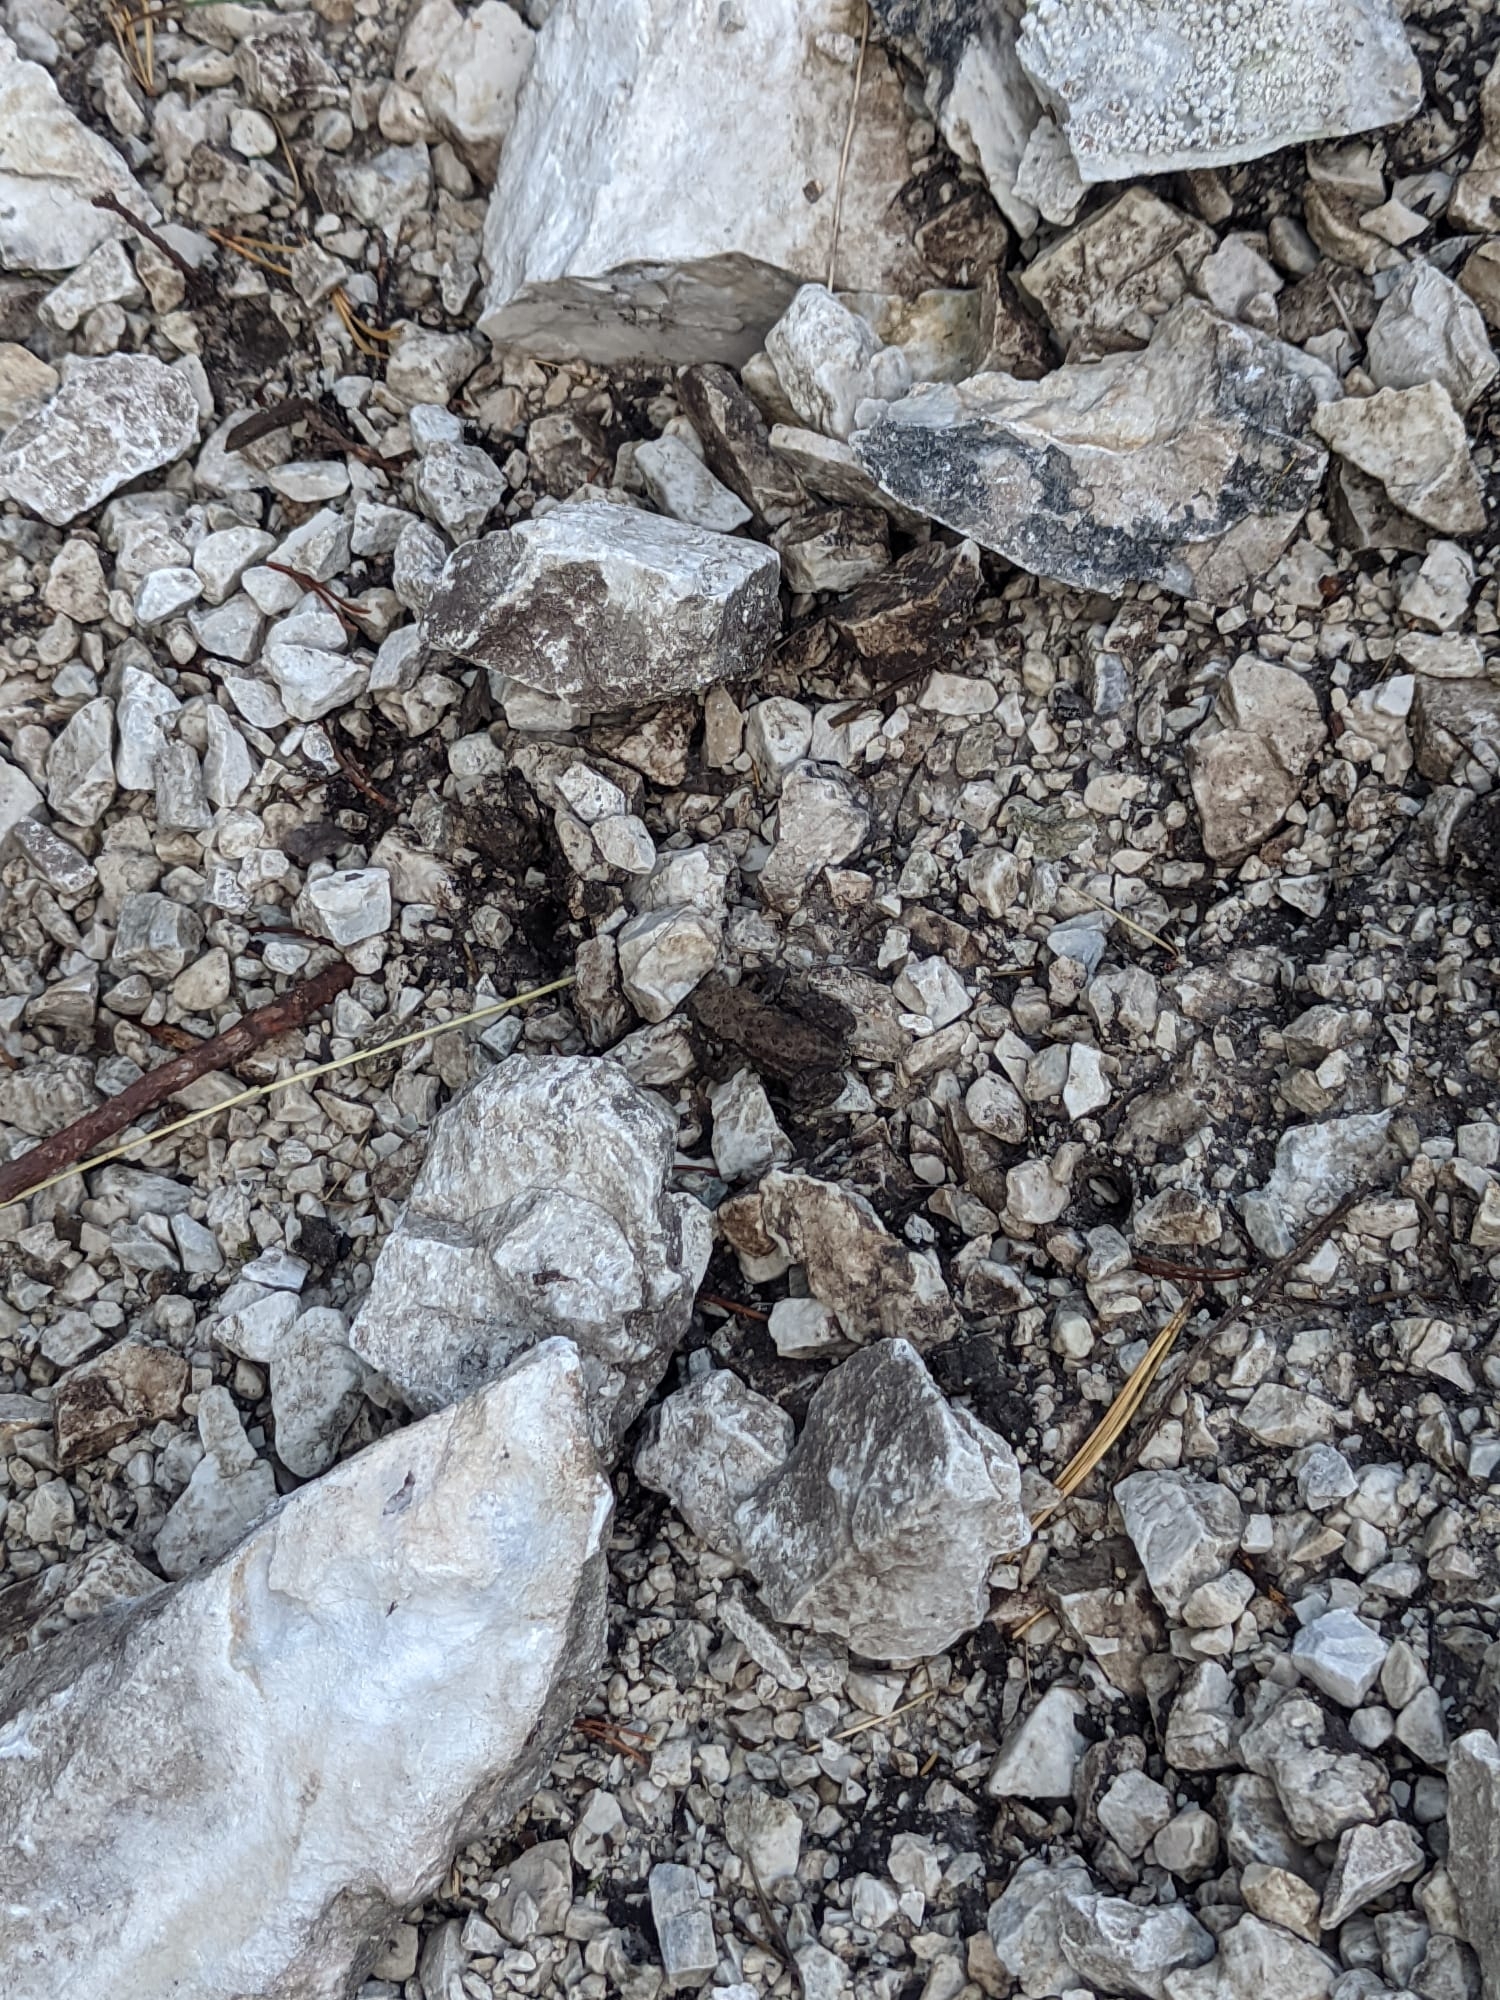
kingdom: Animalia
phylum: Chordata
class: Amphibia
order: Anura
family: Bufonidae
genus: Bufo
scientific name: Bufo bufo
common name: Common toad
